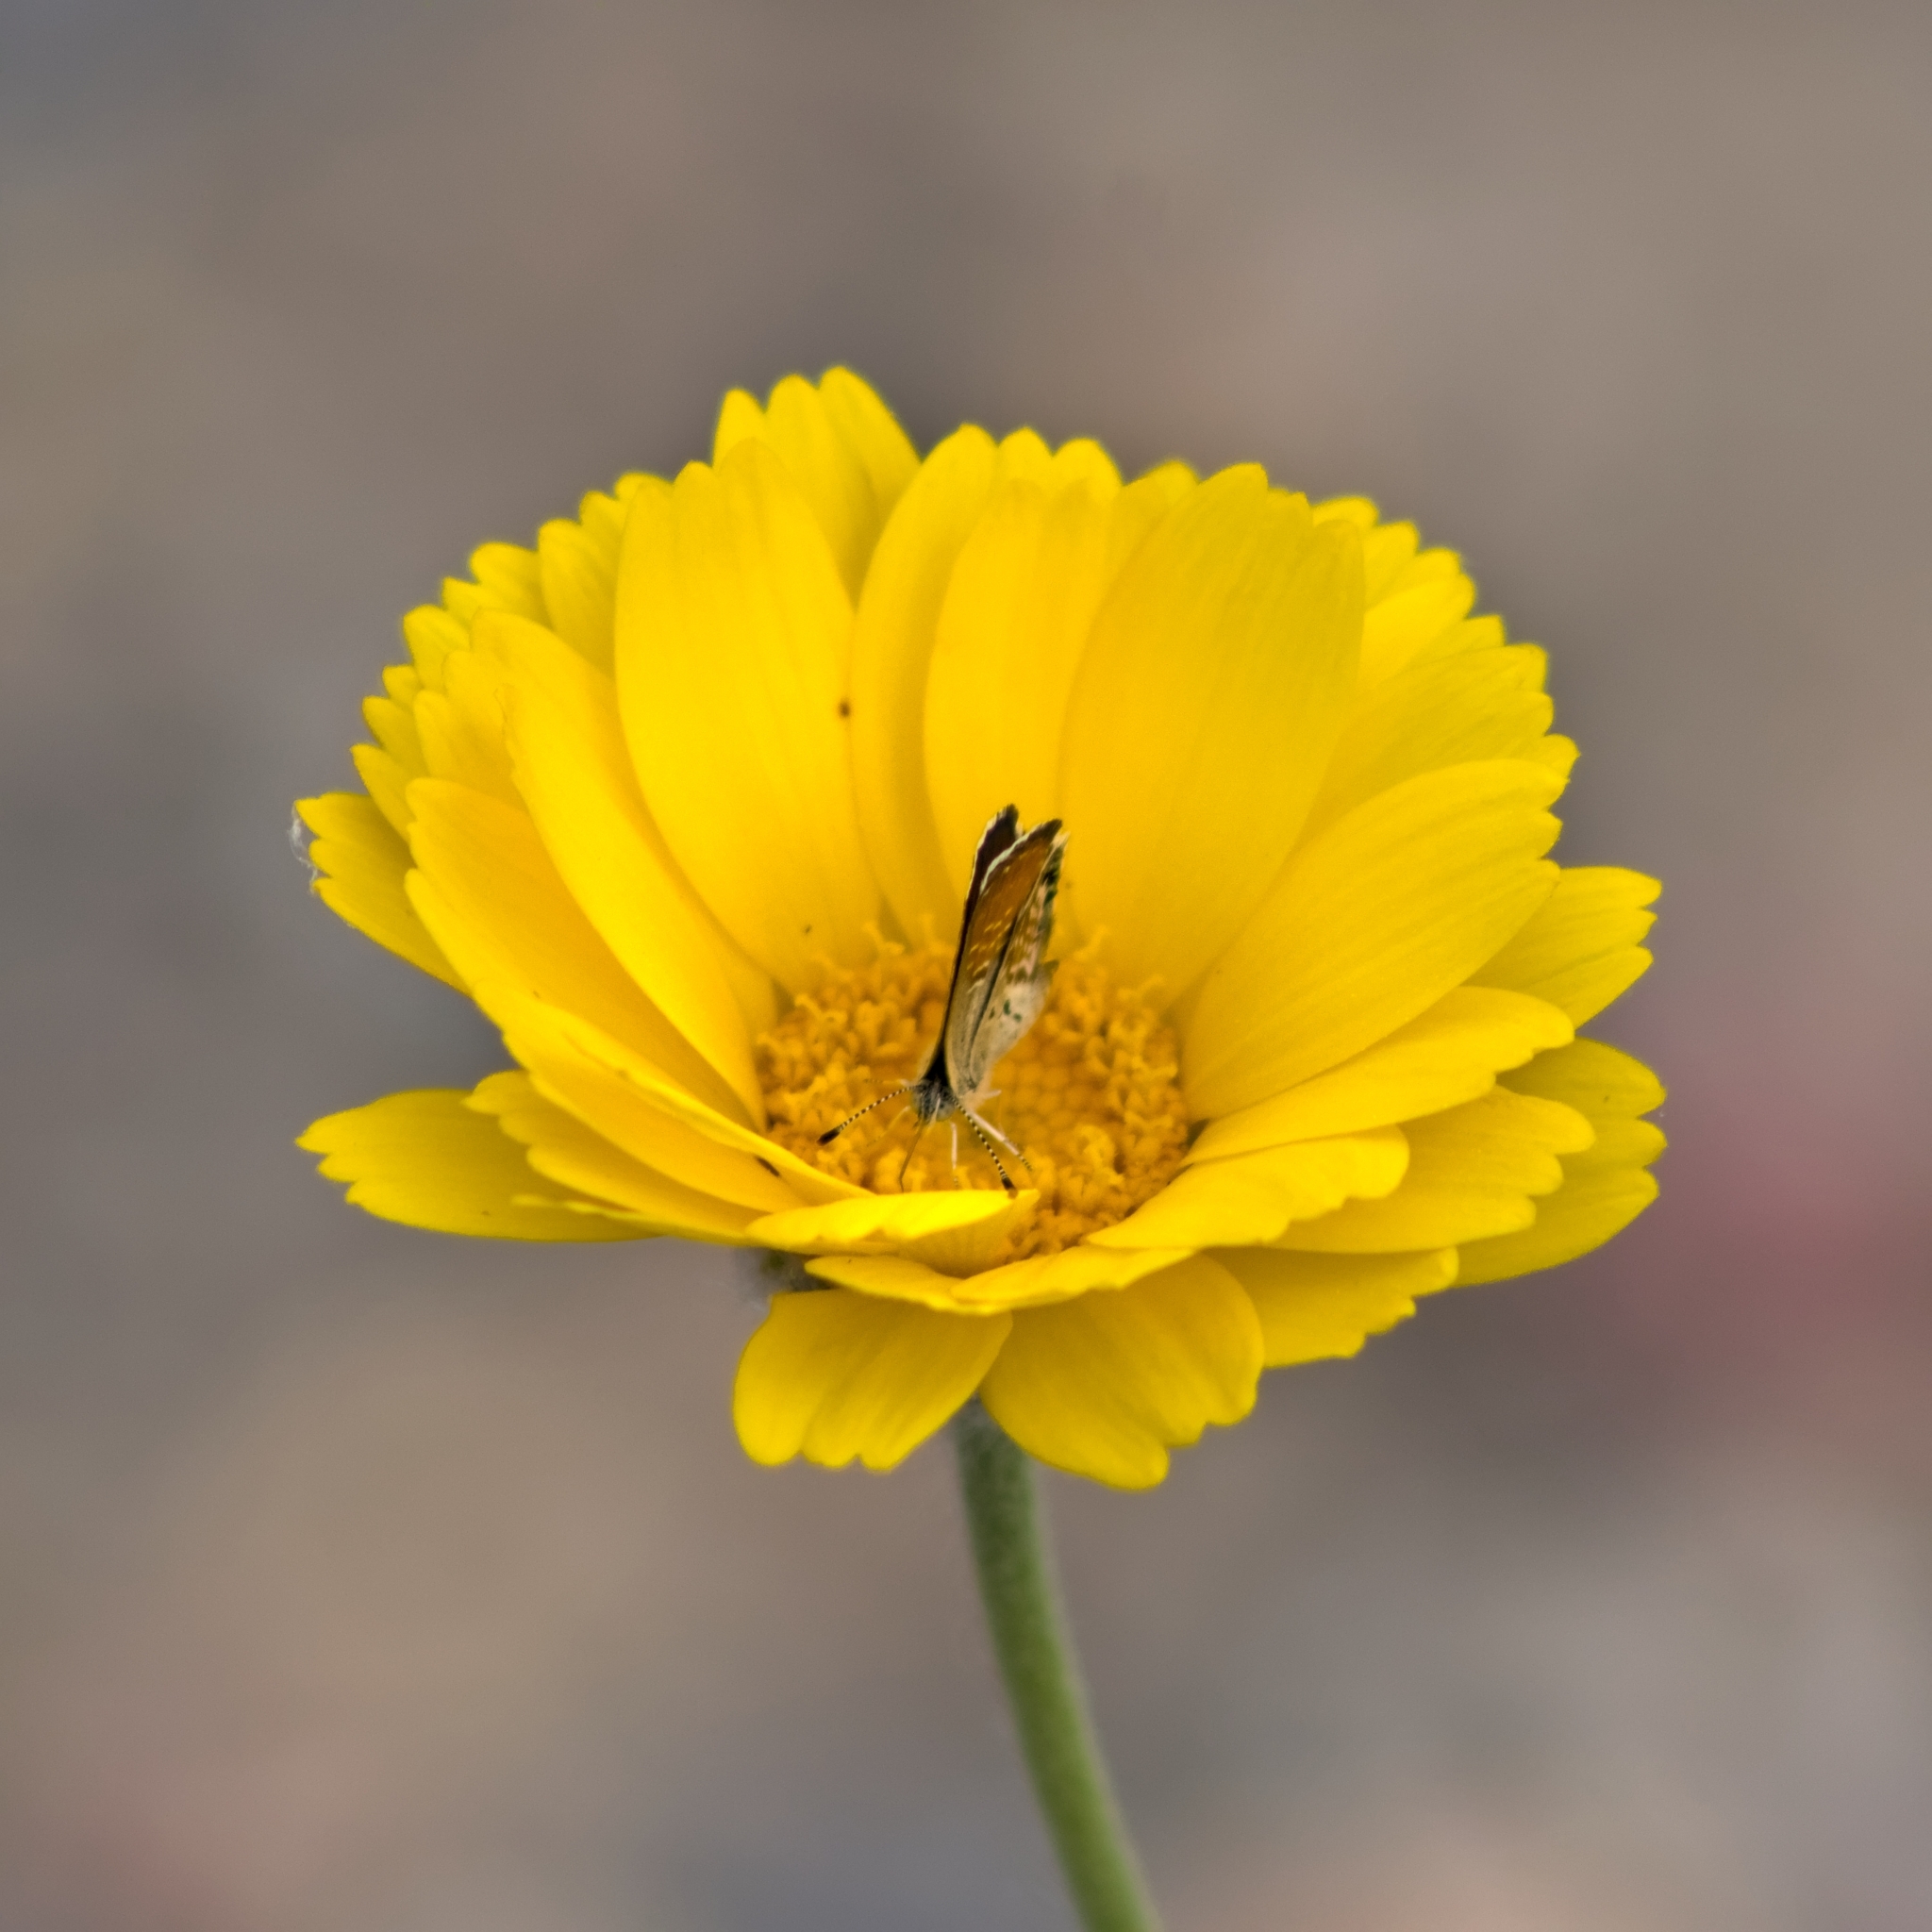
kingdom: Animalia
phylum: Arthropoda
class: Insecta
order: Lepidoptera
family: Lycaenidae
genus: Brephidium
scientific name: Brephidium exilis
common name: Pygmy blue
